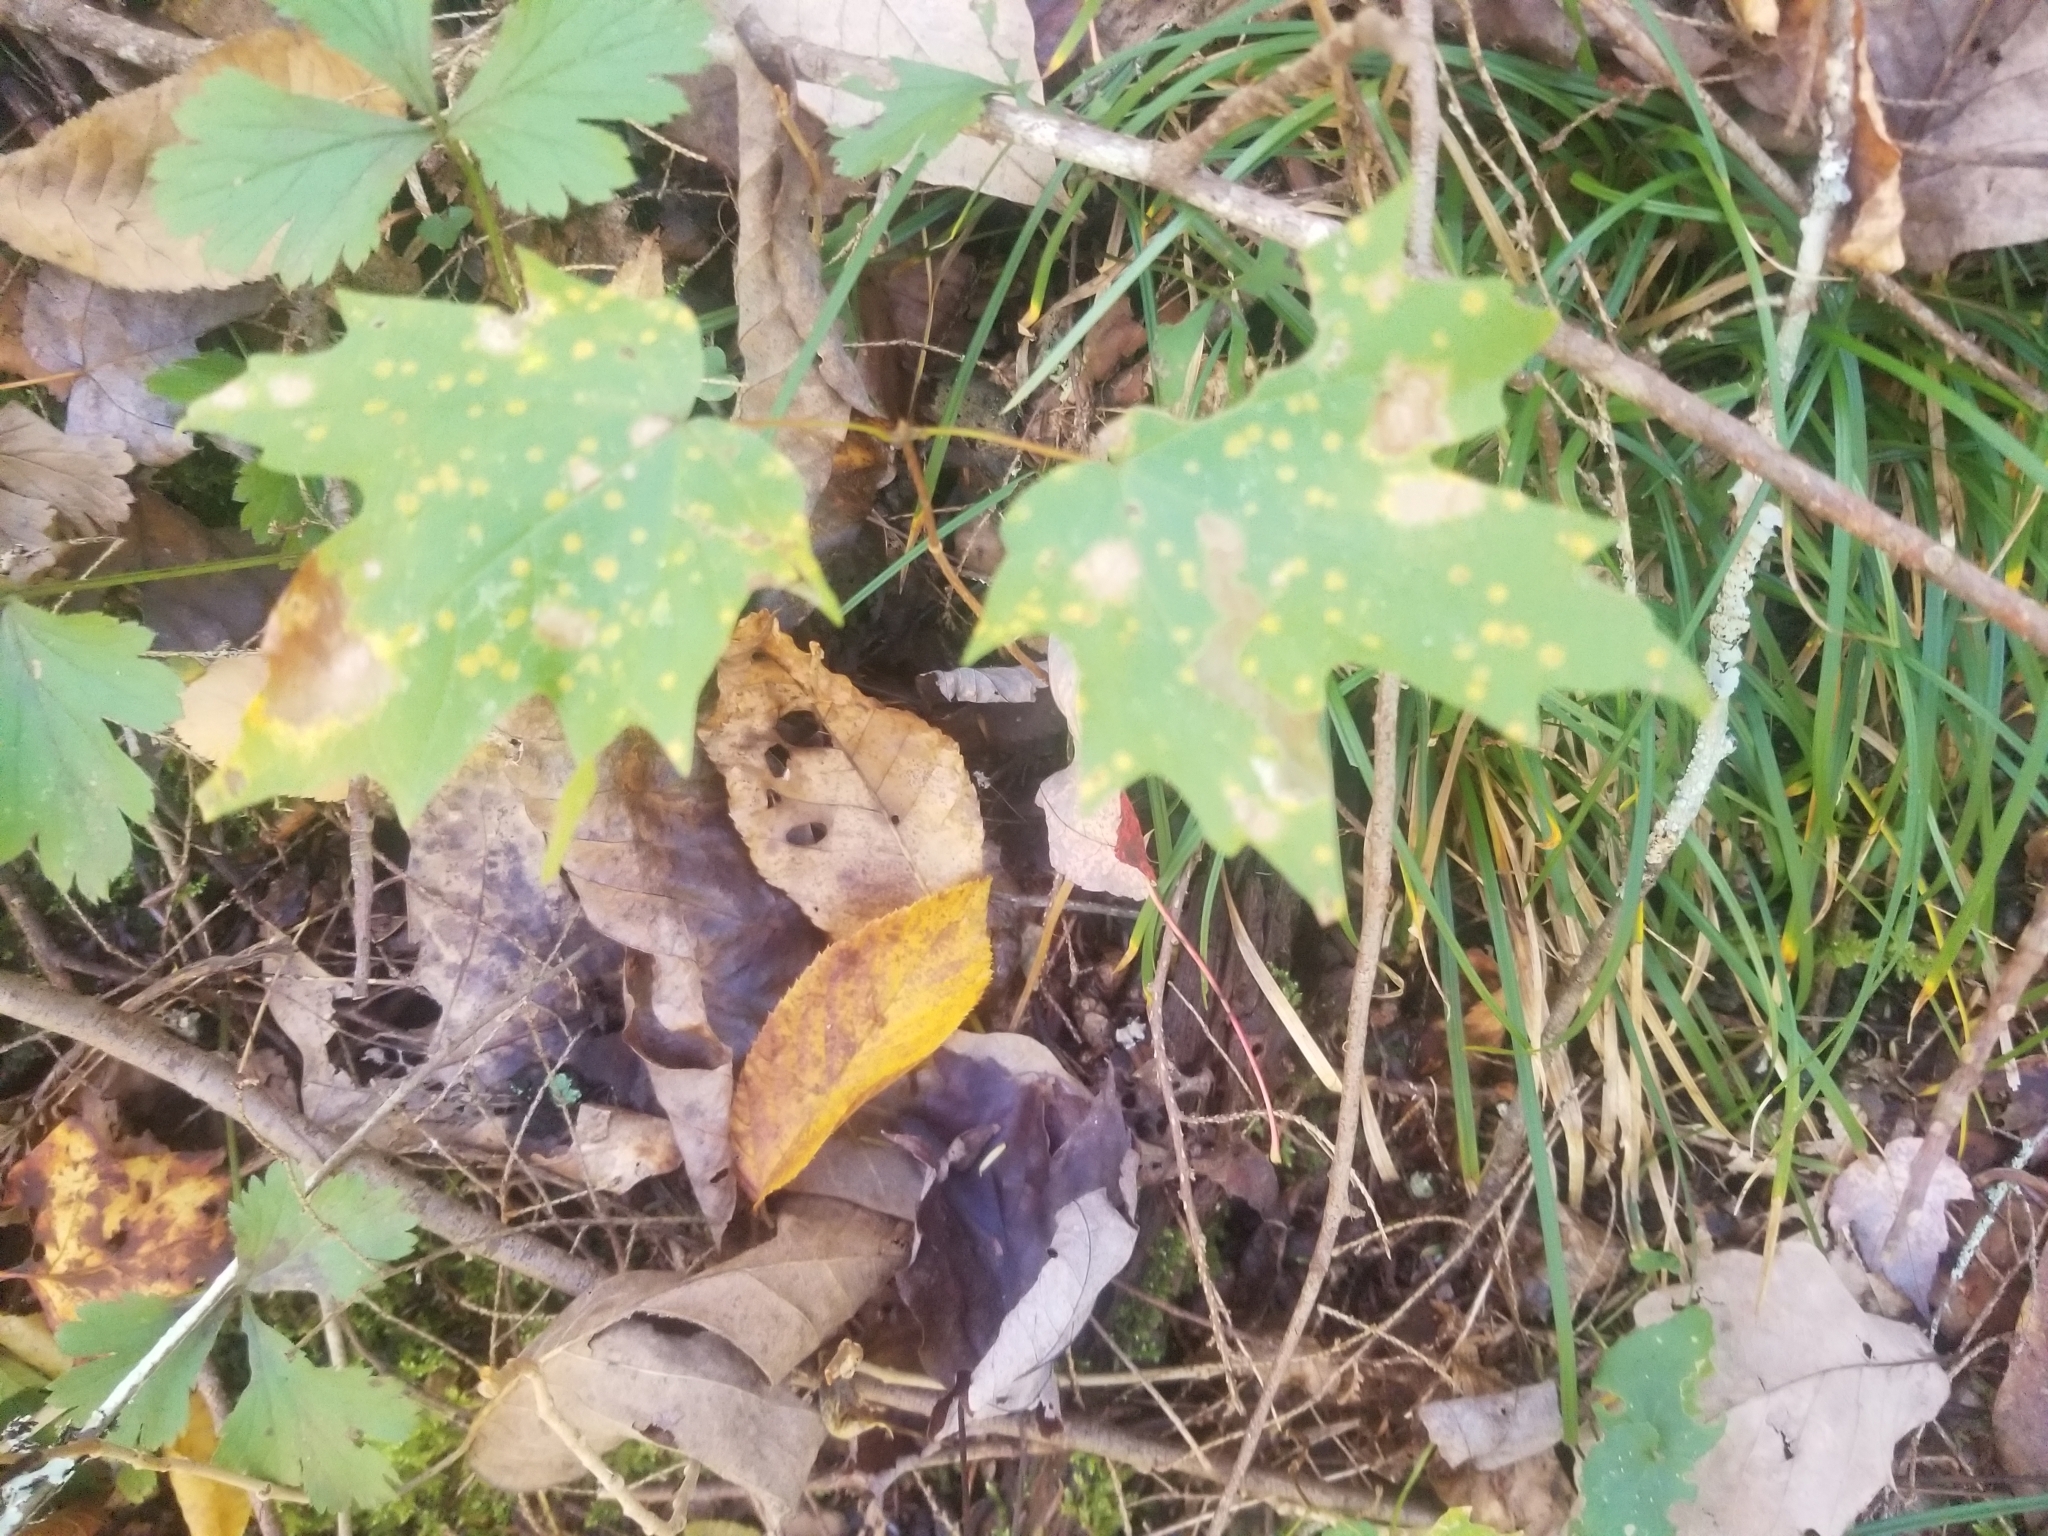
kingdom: Plantae
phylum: Tracheophyta
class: Magnoliopsida
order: Sapindales
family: Sapindaceae
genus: Acer
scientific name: Acer saccharum
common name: Sugar maple
